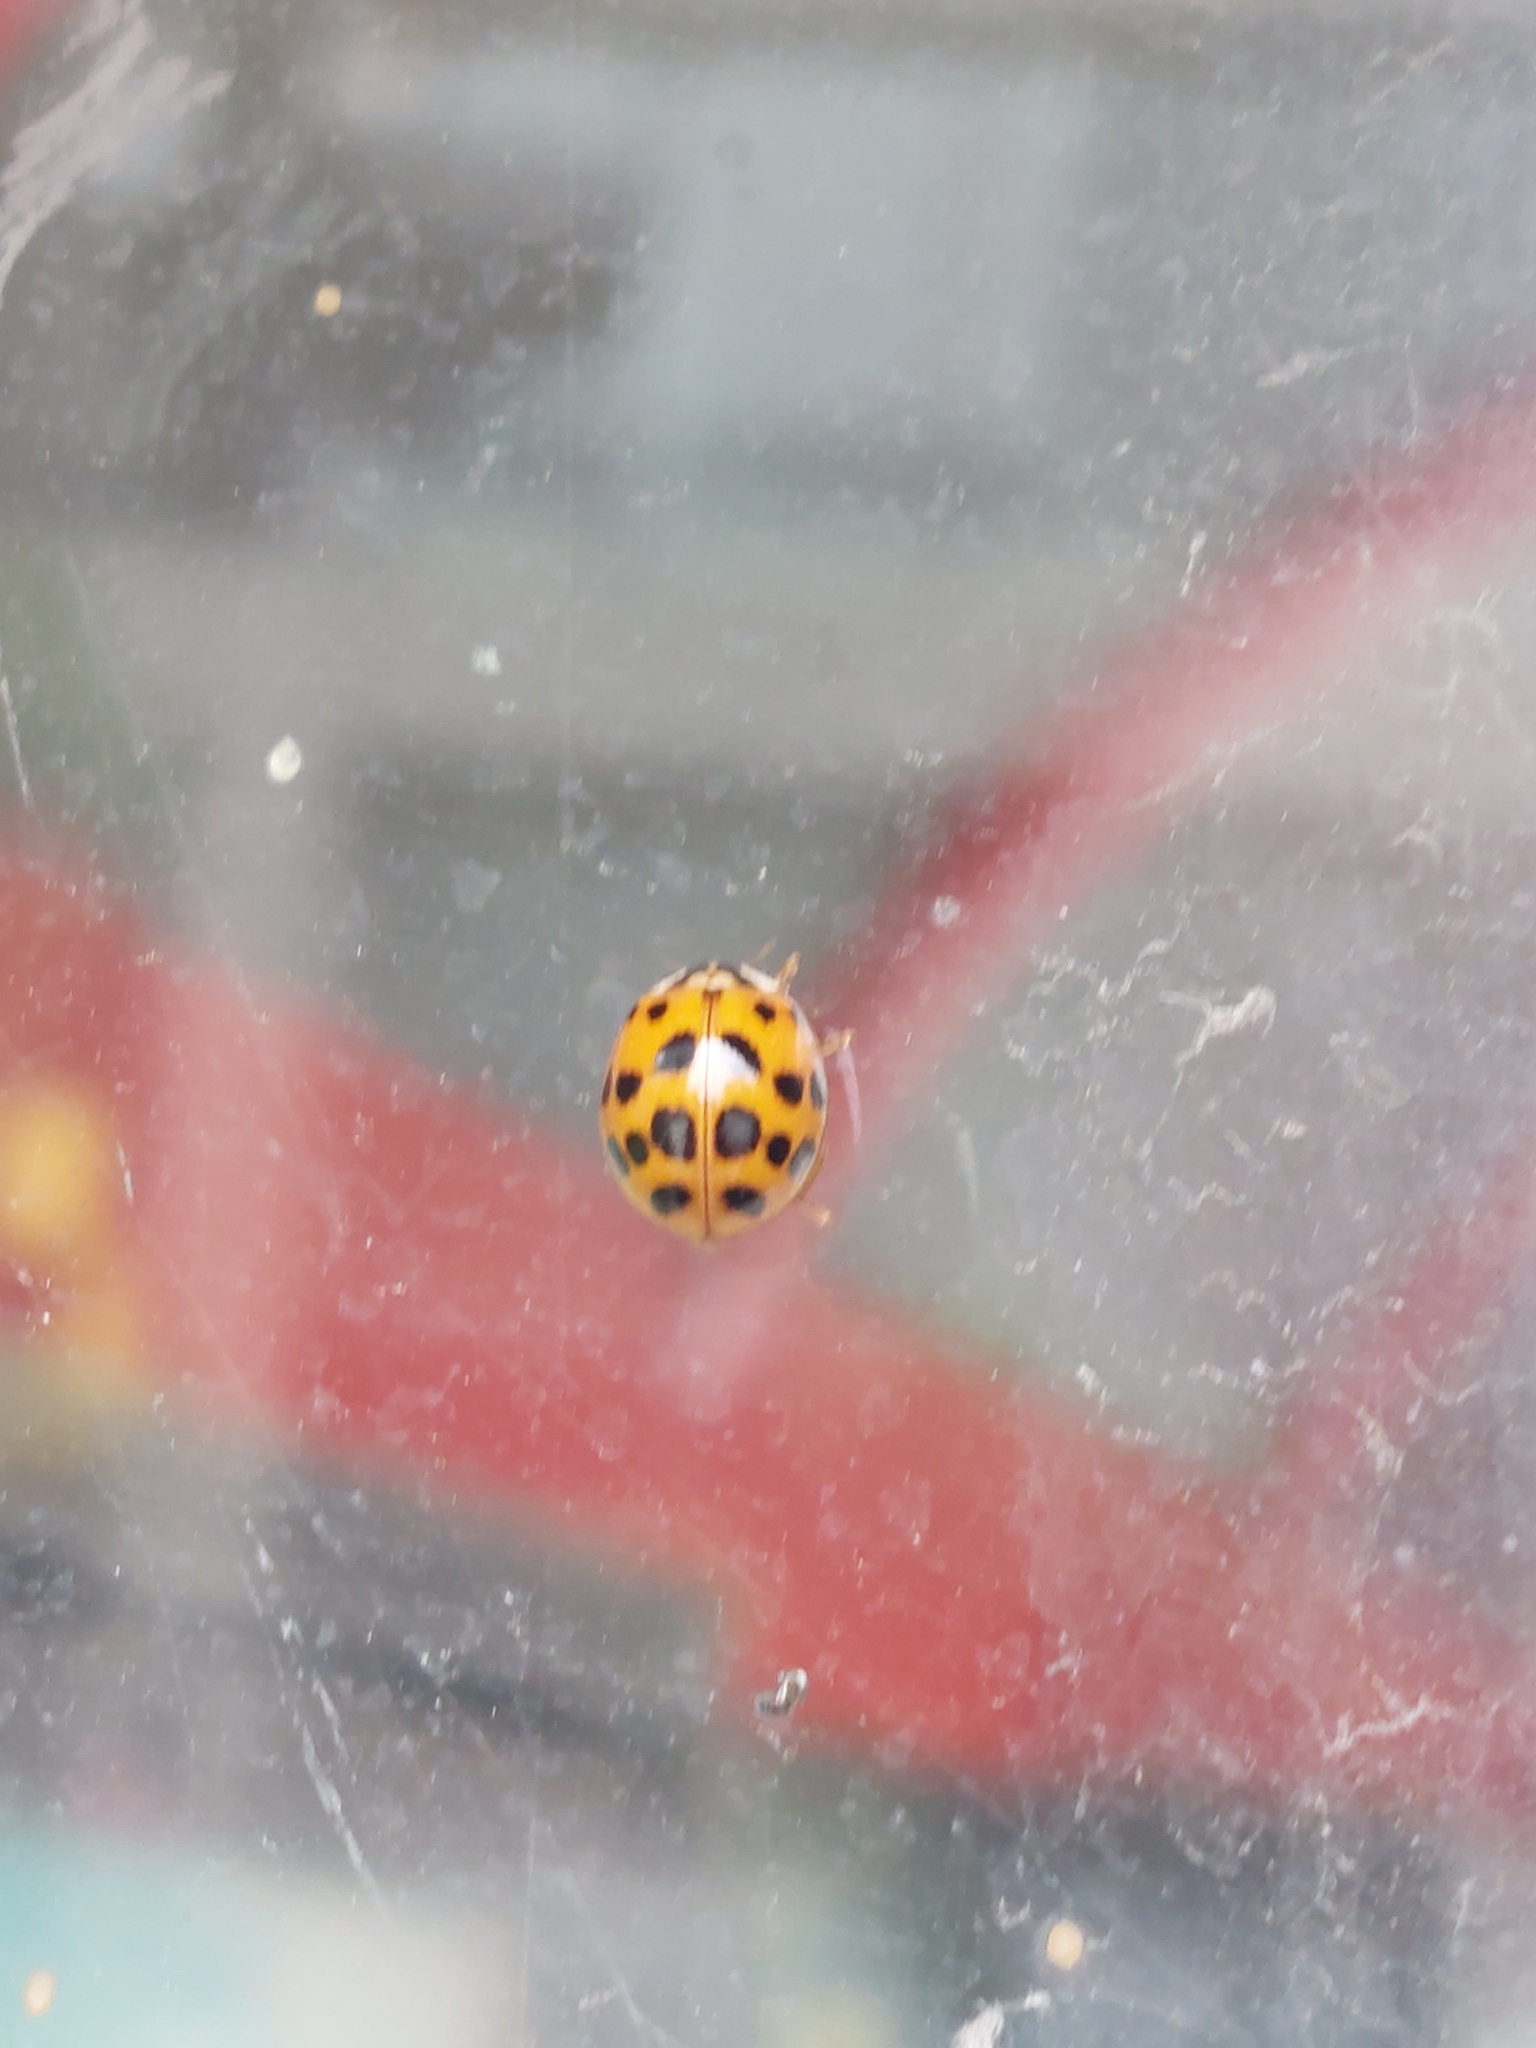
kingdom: Animalia
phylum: Arthropoda
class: Insecta
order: Coleoptera
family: Coccinellidae
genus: Harmonia
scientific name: Harmonia axyridis
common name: Harlequin ladybird
